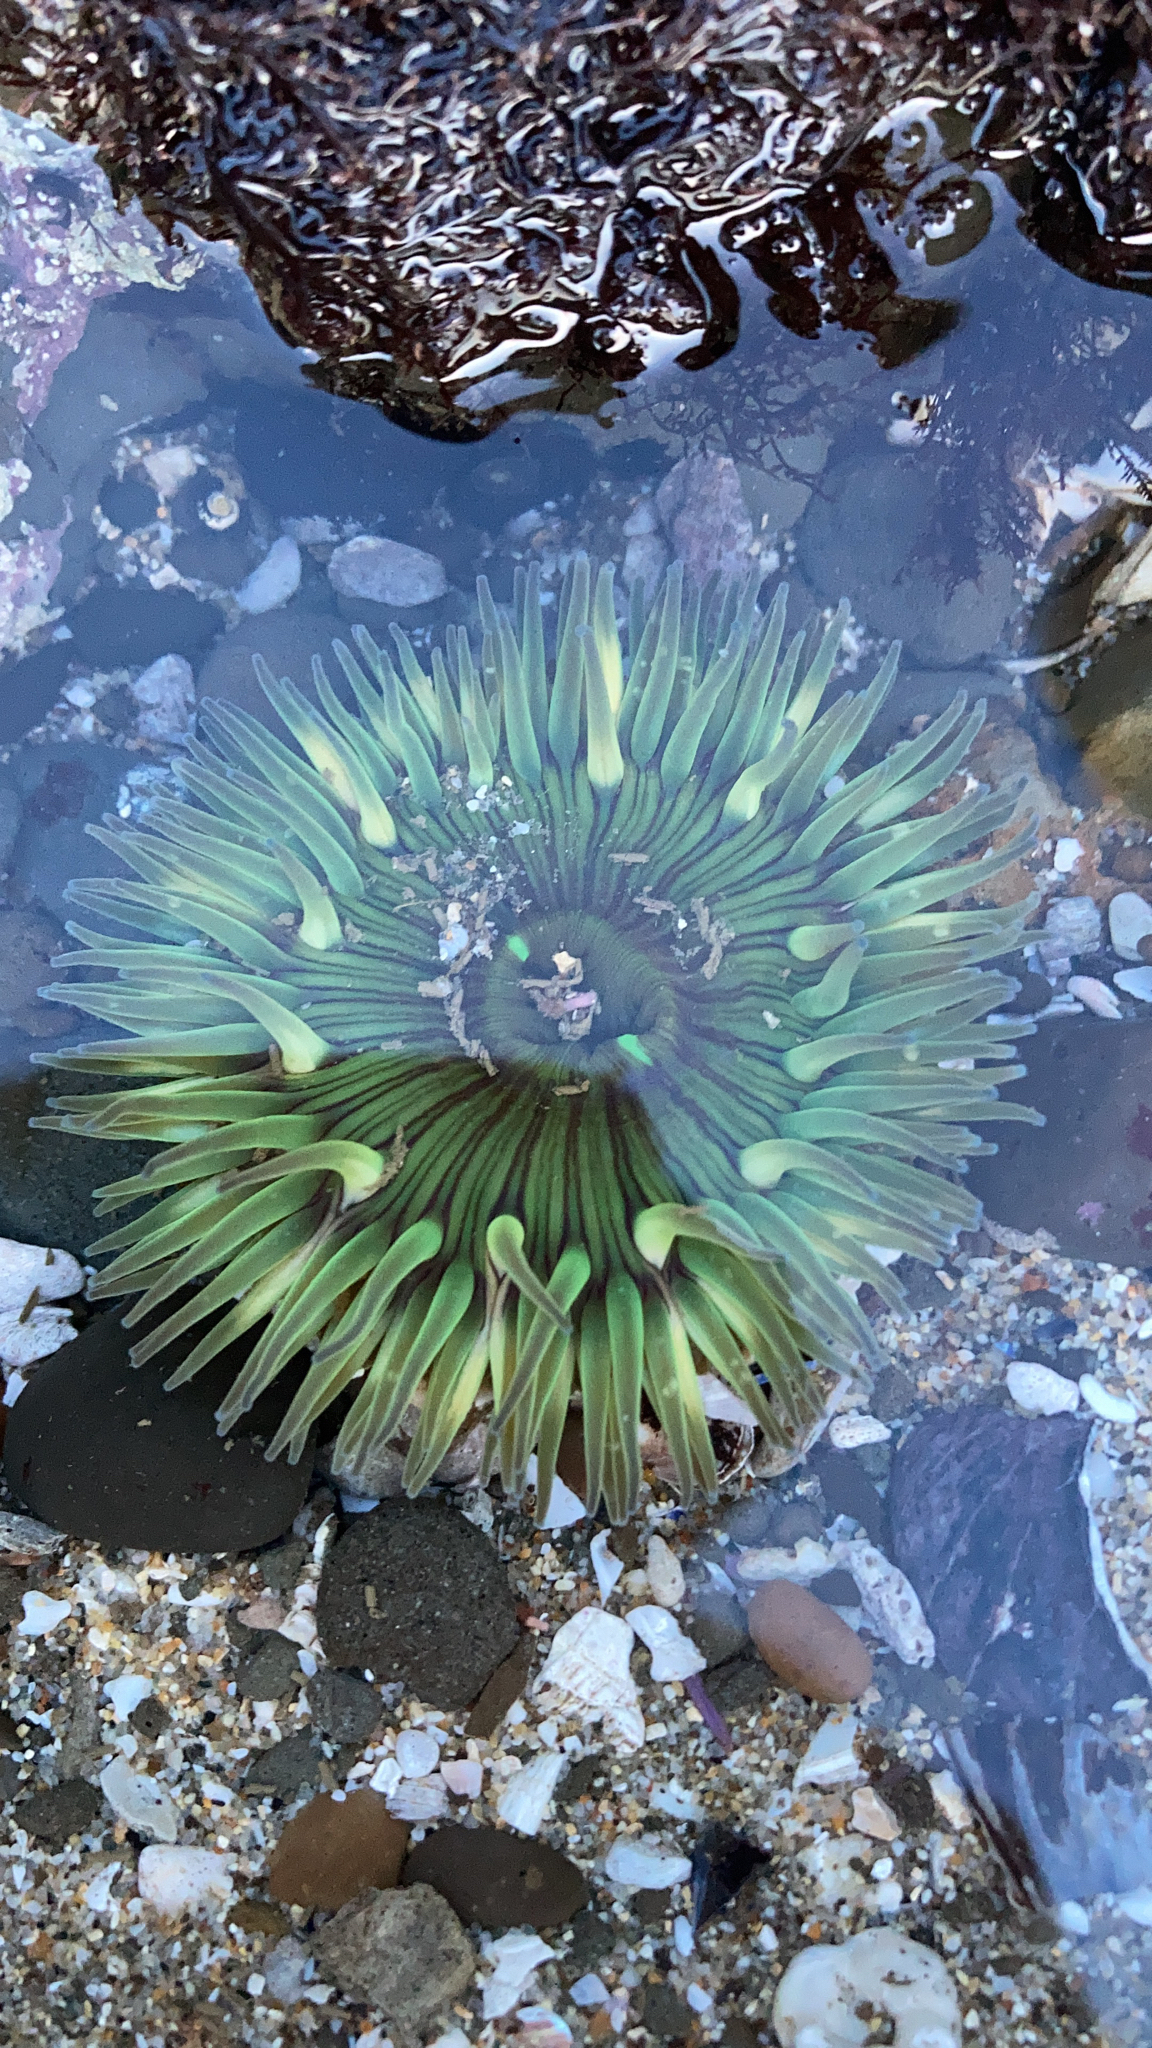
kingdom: Animalia
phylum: Cnidaria
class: Anthozoa
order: Actiniaria
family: Actiniidae
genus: Anthopleura
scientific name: Anthopleura sola
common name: Sun anemone
